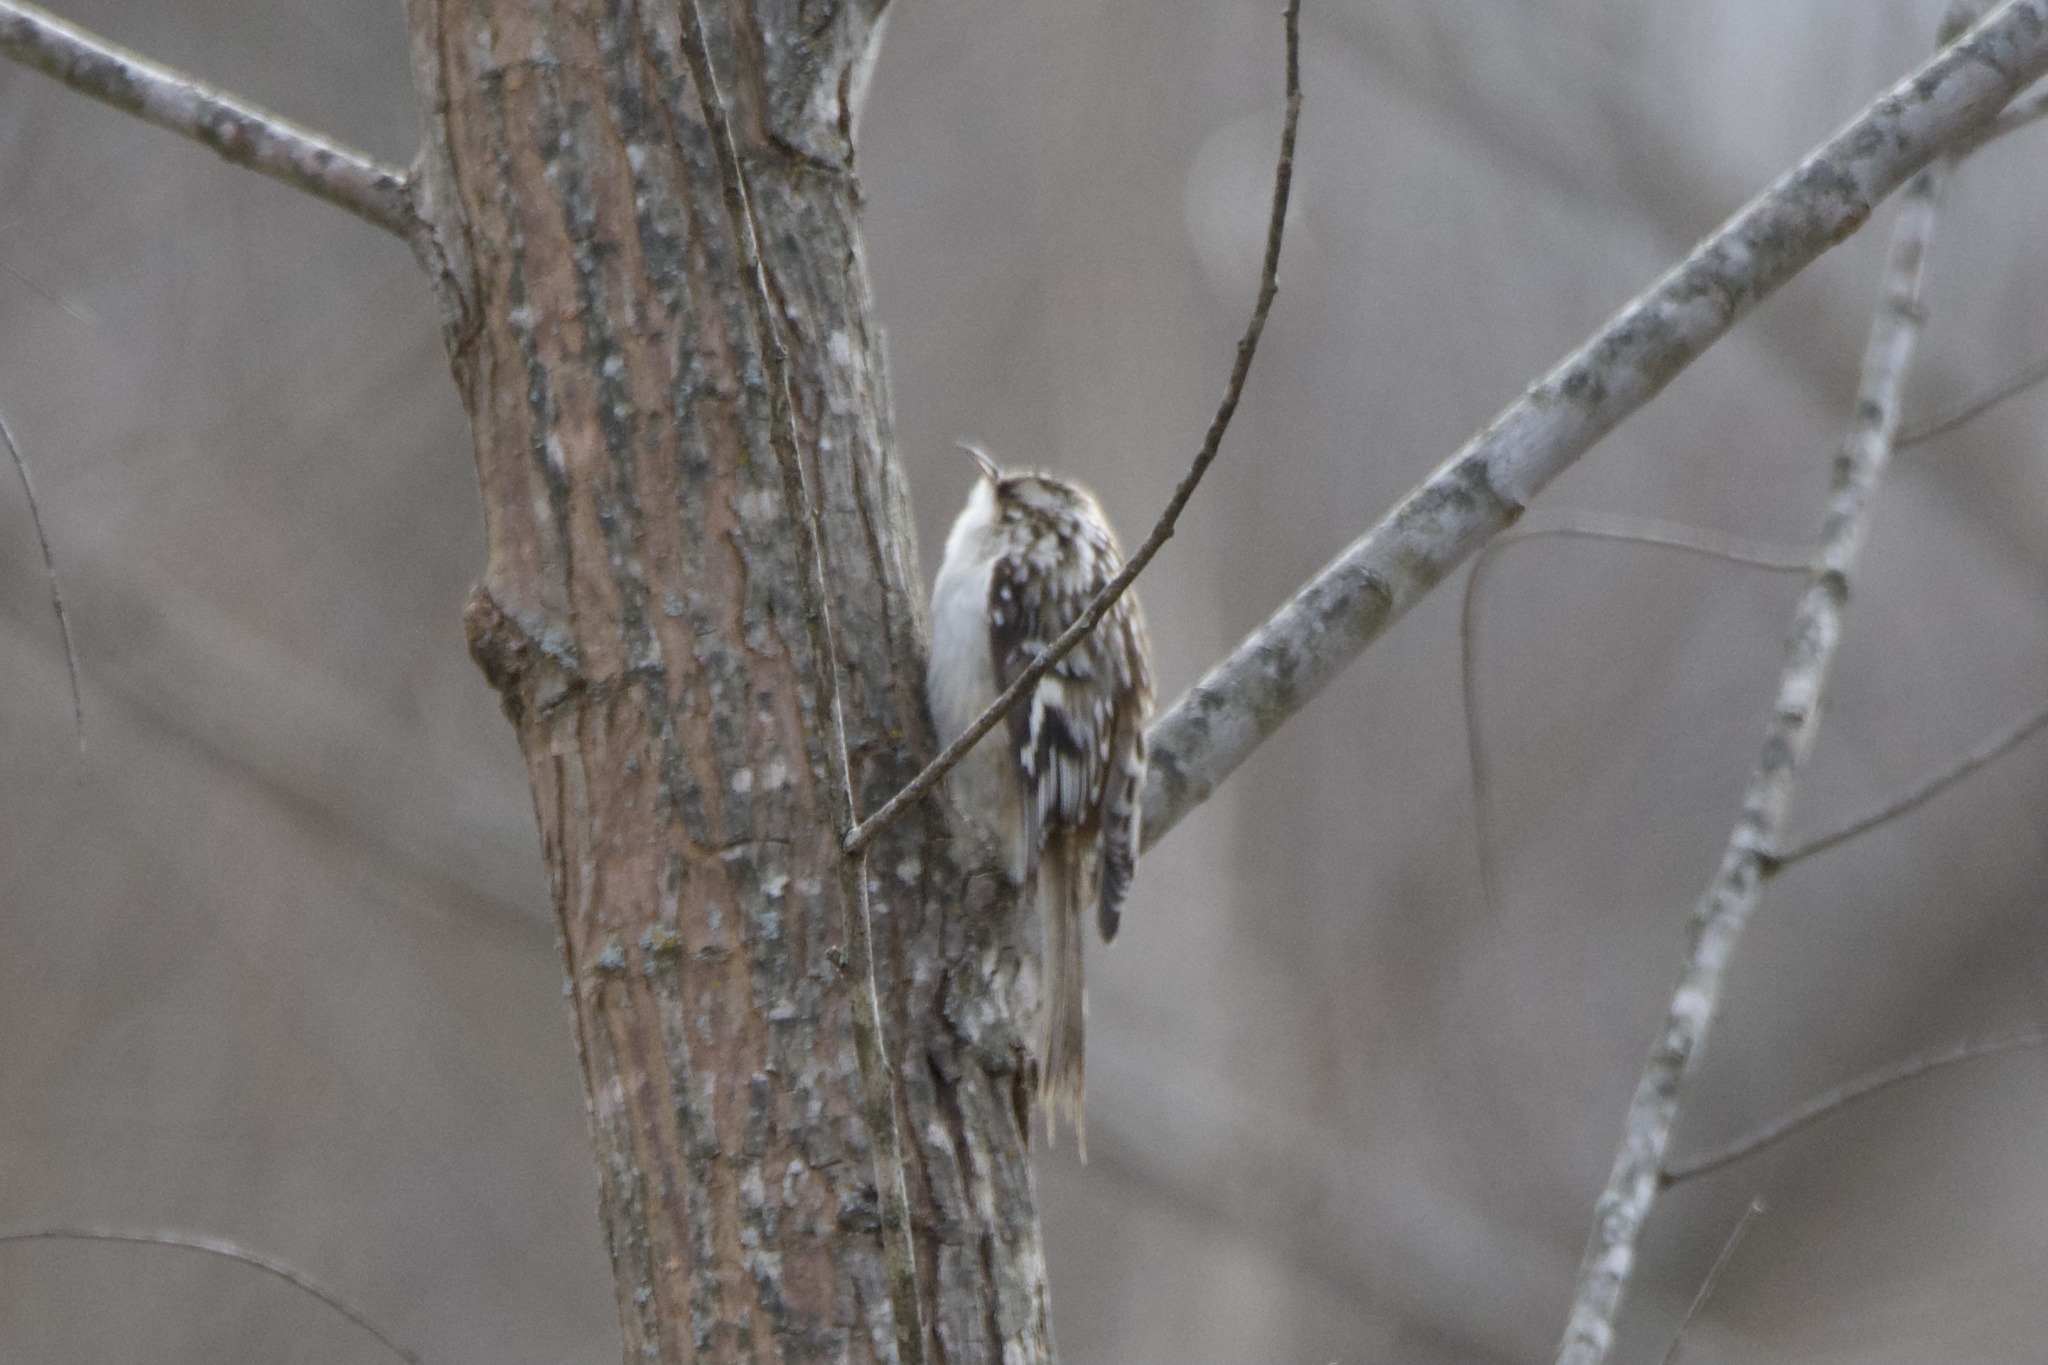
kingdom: Animalia
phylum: Chordata
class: Aves
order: Passeriformes
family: Certhiidae
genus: Certhia
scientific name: Certhia americana
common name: Brown creeper
